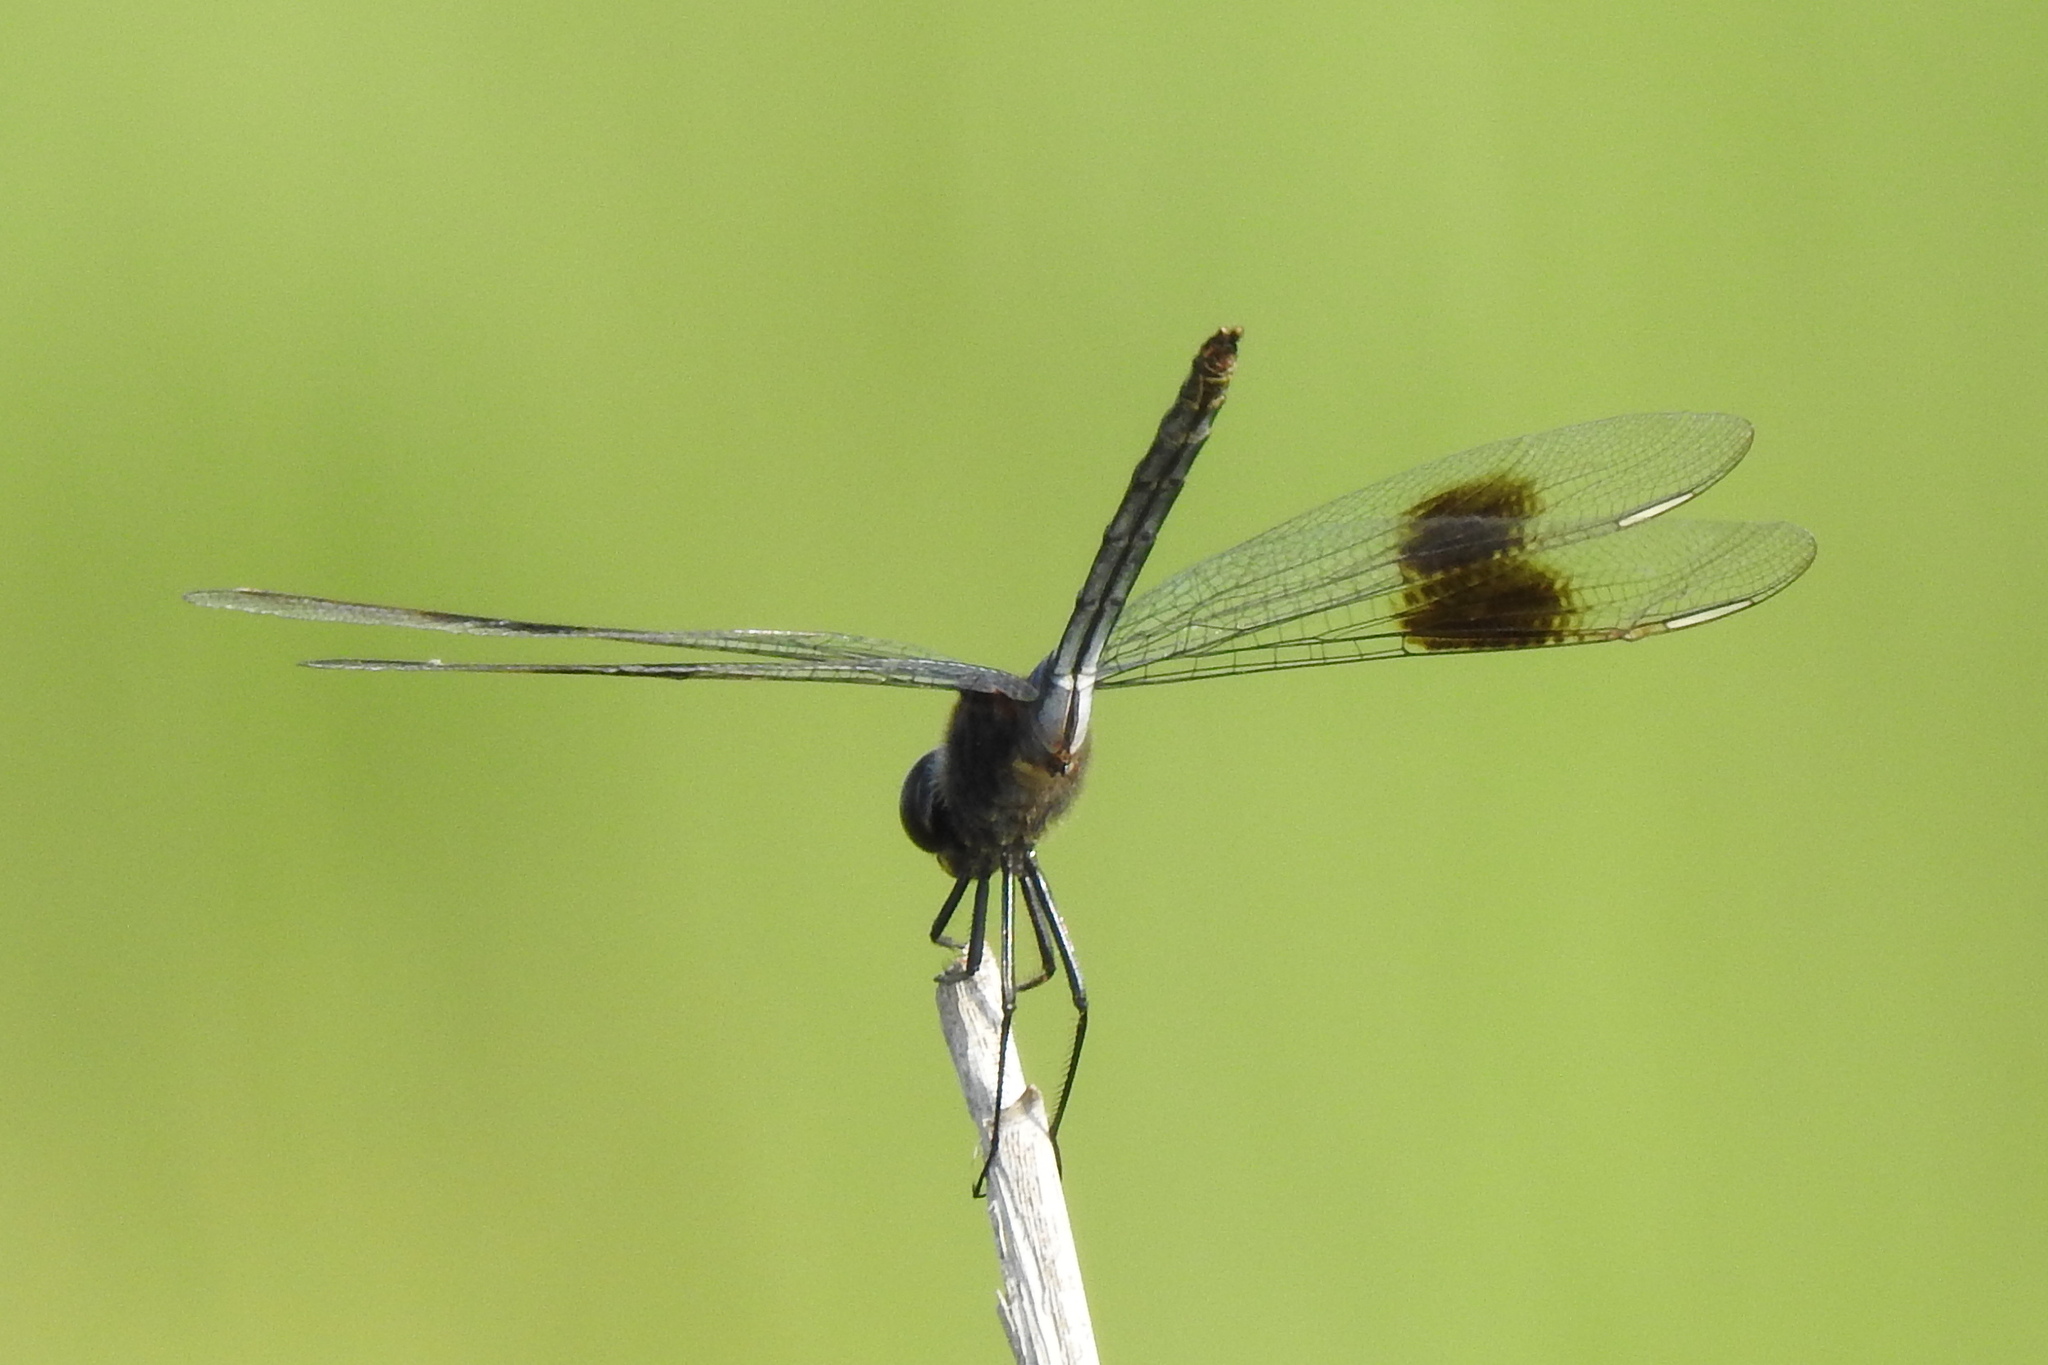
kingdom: Animalia
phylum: Arthropoda
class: Insecta
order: Odonata
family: Libellulidae
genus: Brachymesia
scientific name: Brachymesia gravida
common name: Four-spotted pennant
